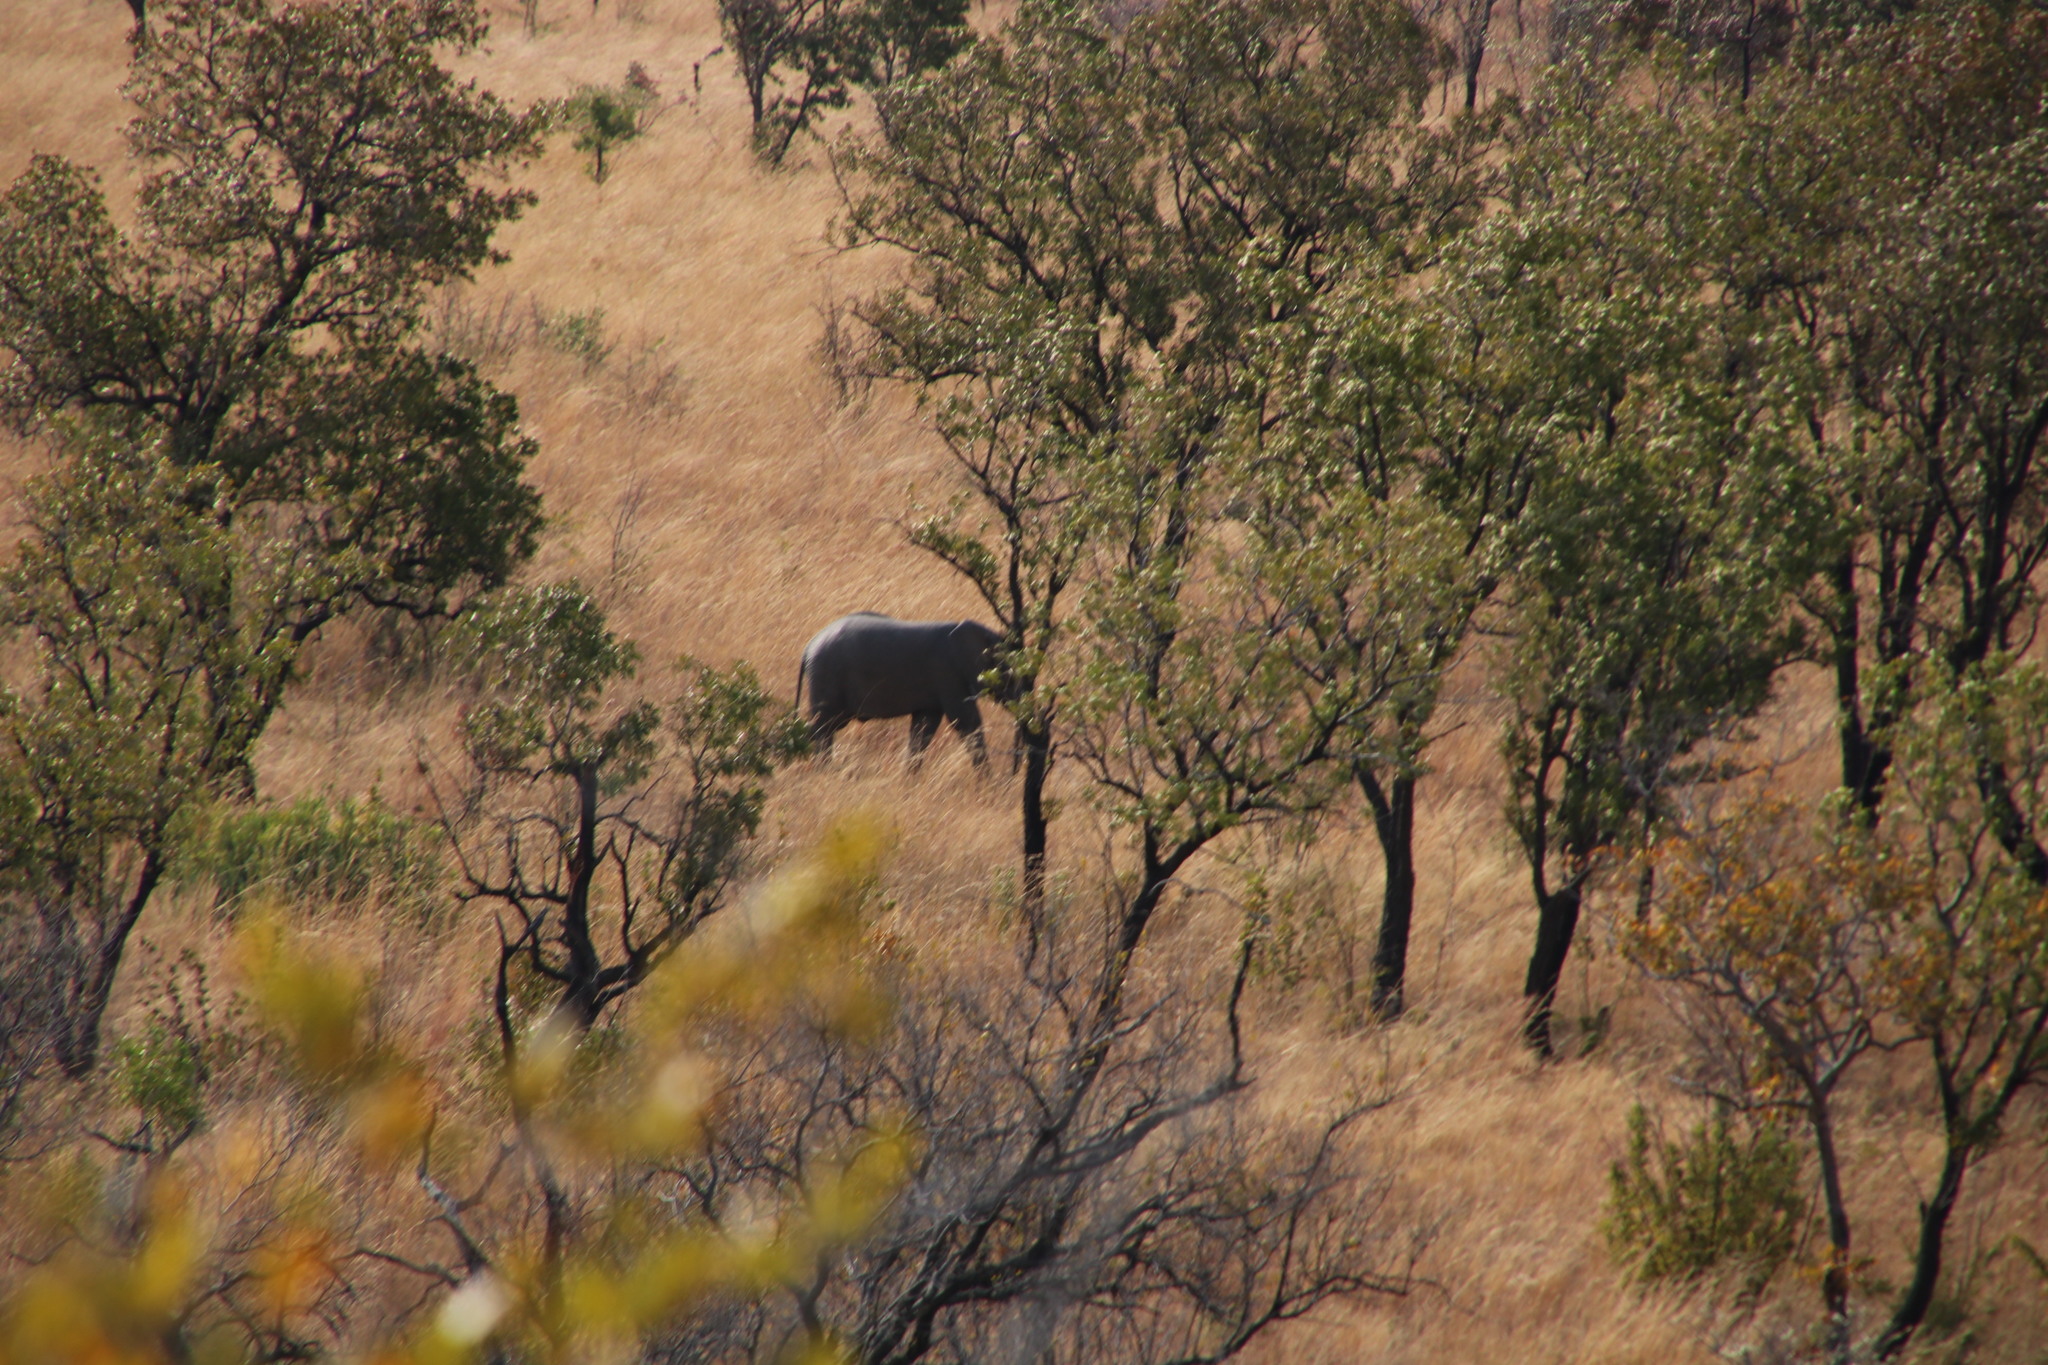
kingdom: Animalia
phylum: Chordata
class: Mammalia
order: Proboscidea
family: Elephantidae
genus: Loxodonta
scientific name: Loxodonta africana
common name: African elephant
